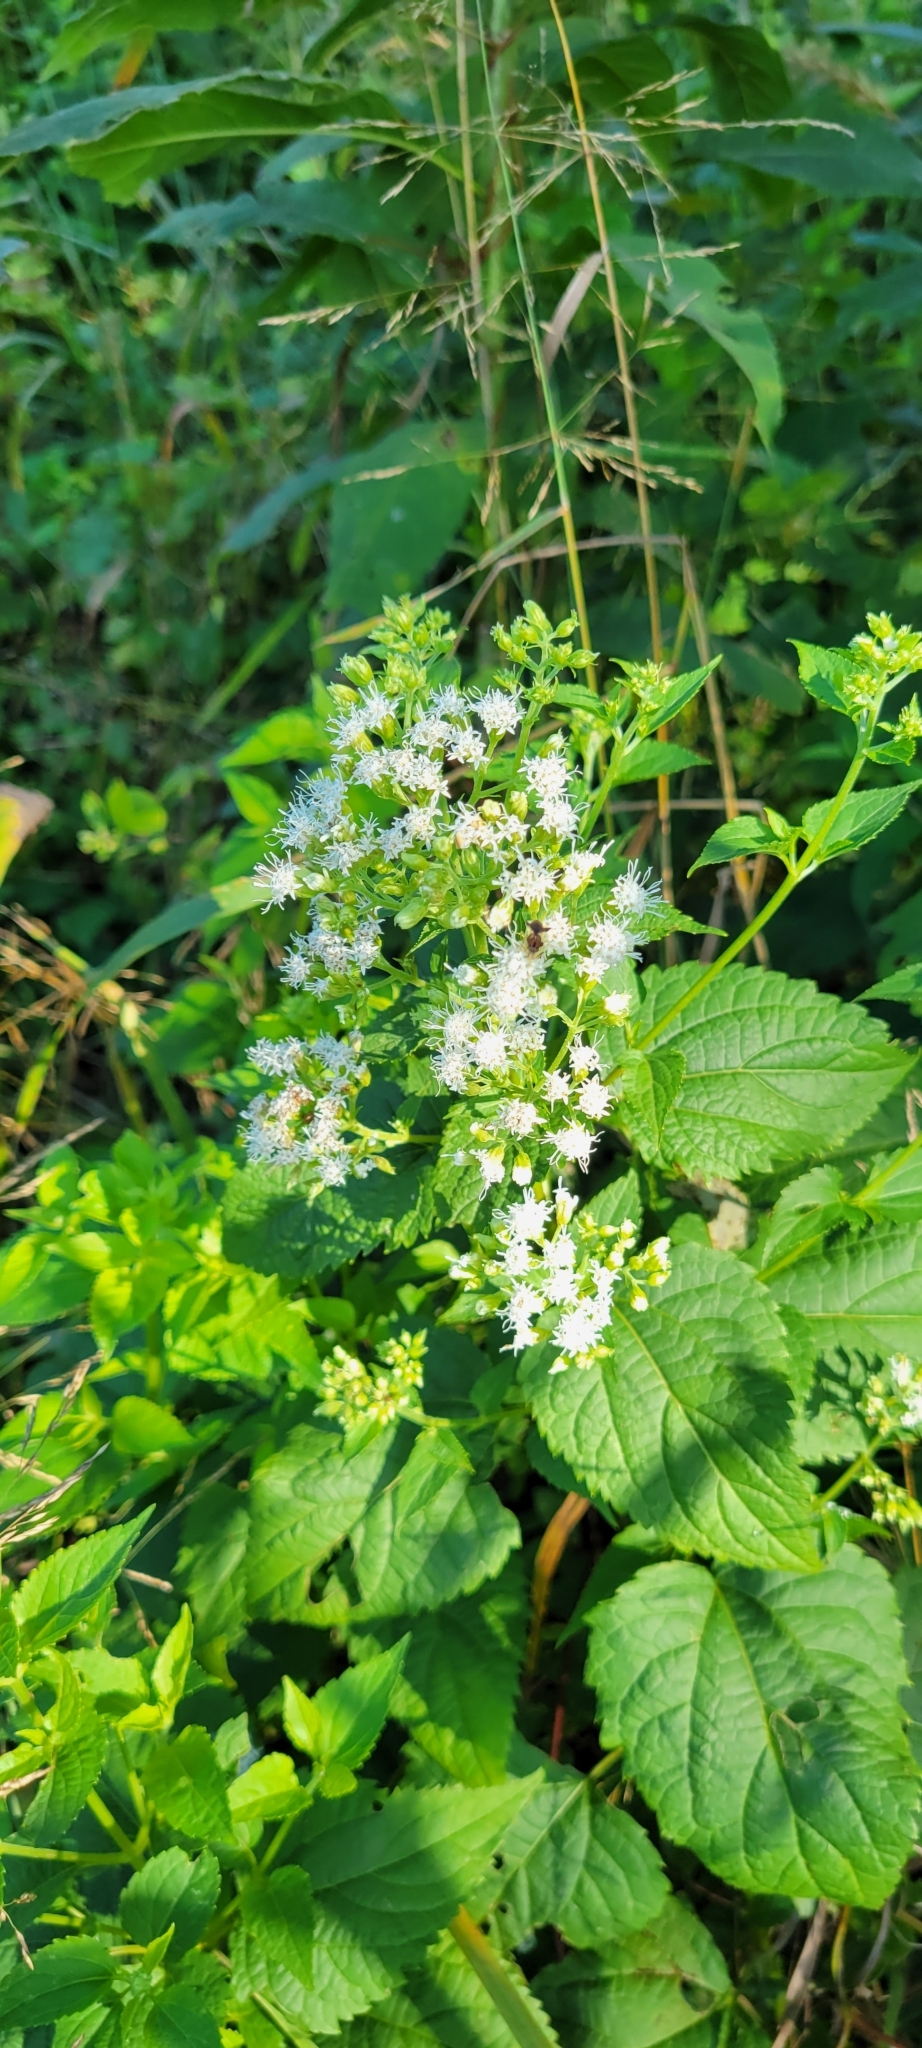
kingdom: Plantae
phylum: Tracheophyta
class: Magnoliopsida
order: Asterales
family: Asteraceae
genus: Ageratina
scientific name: Ageratina altissima
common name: White snakeroot
